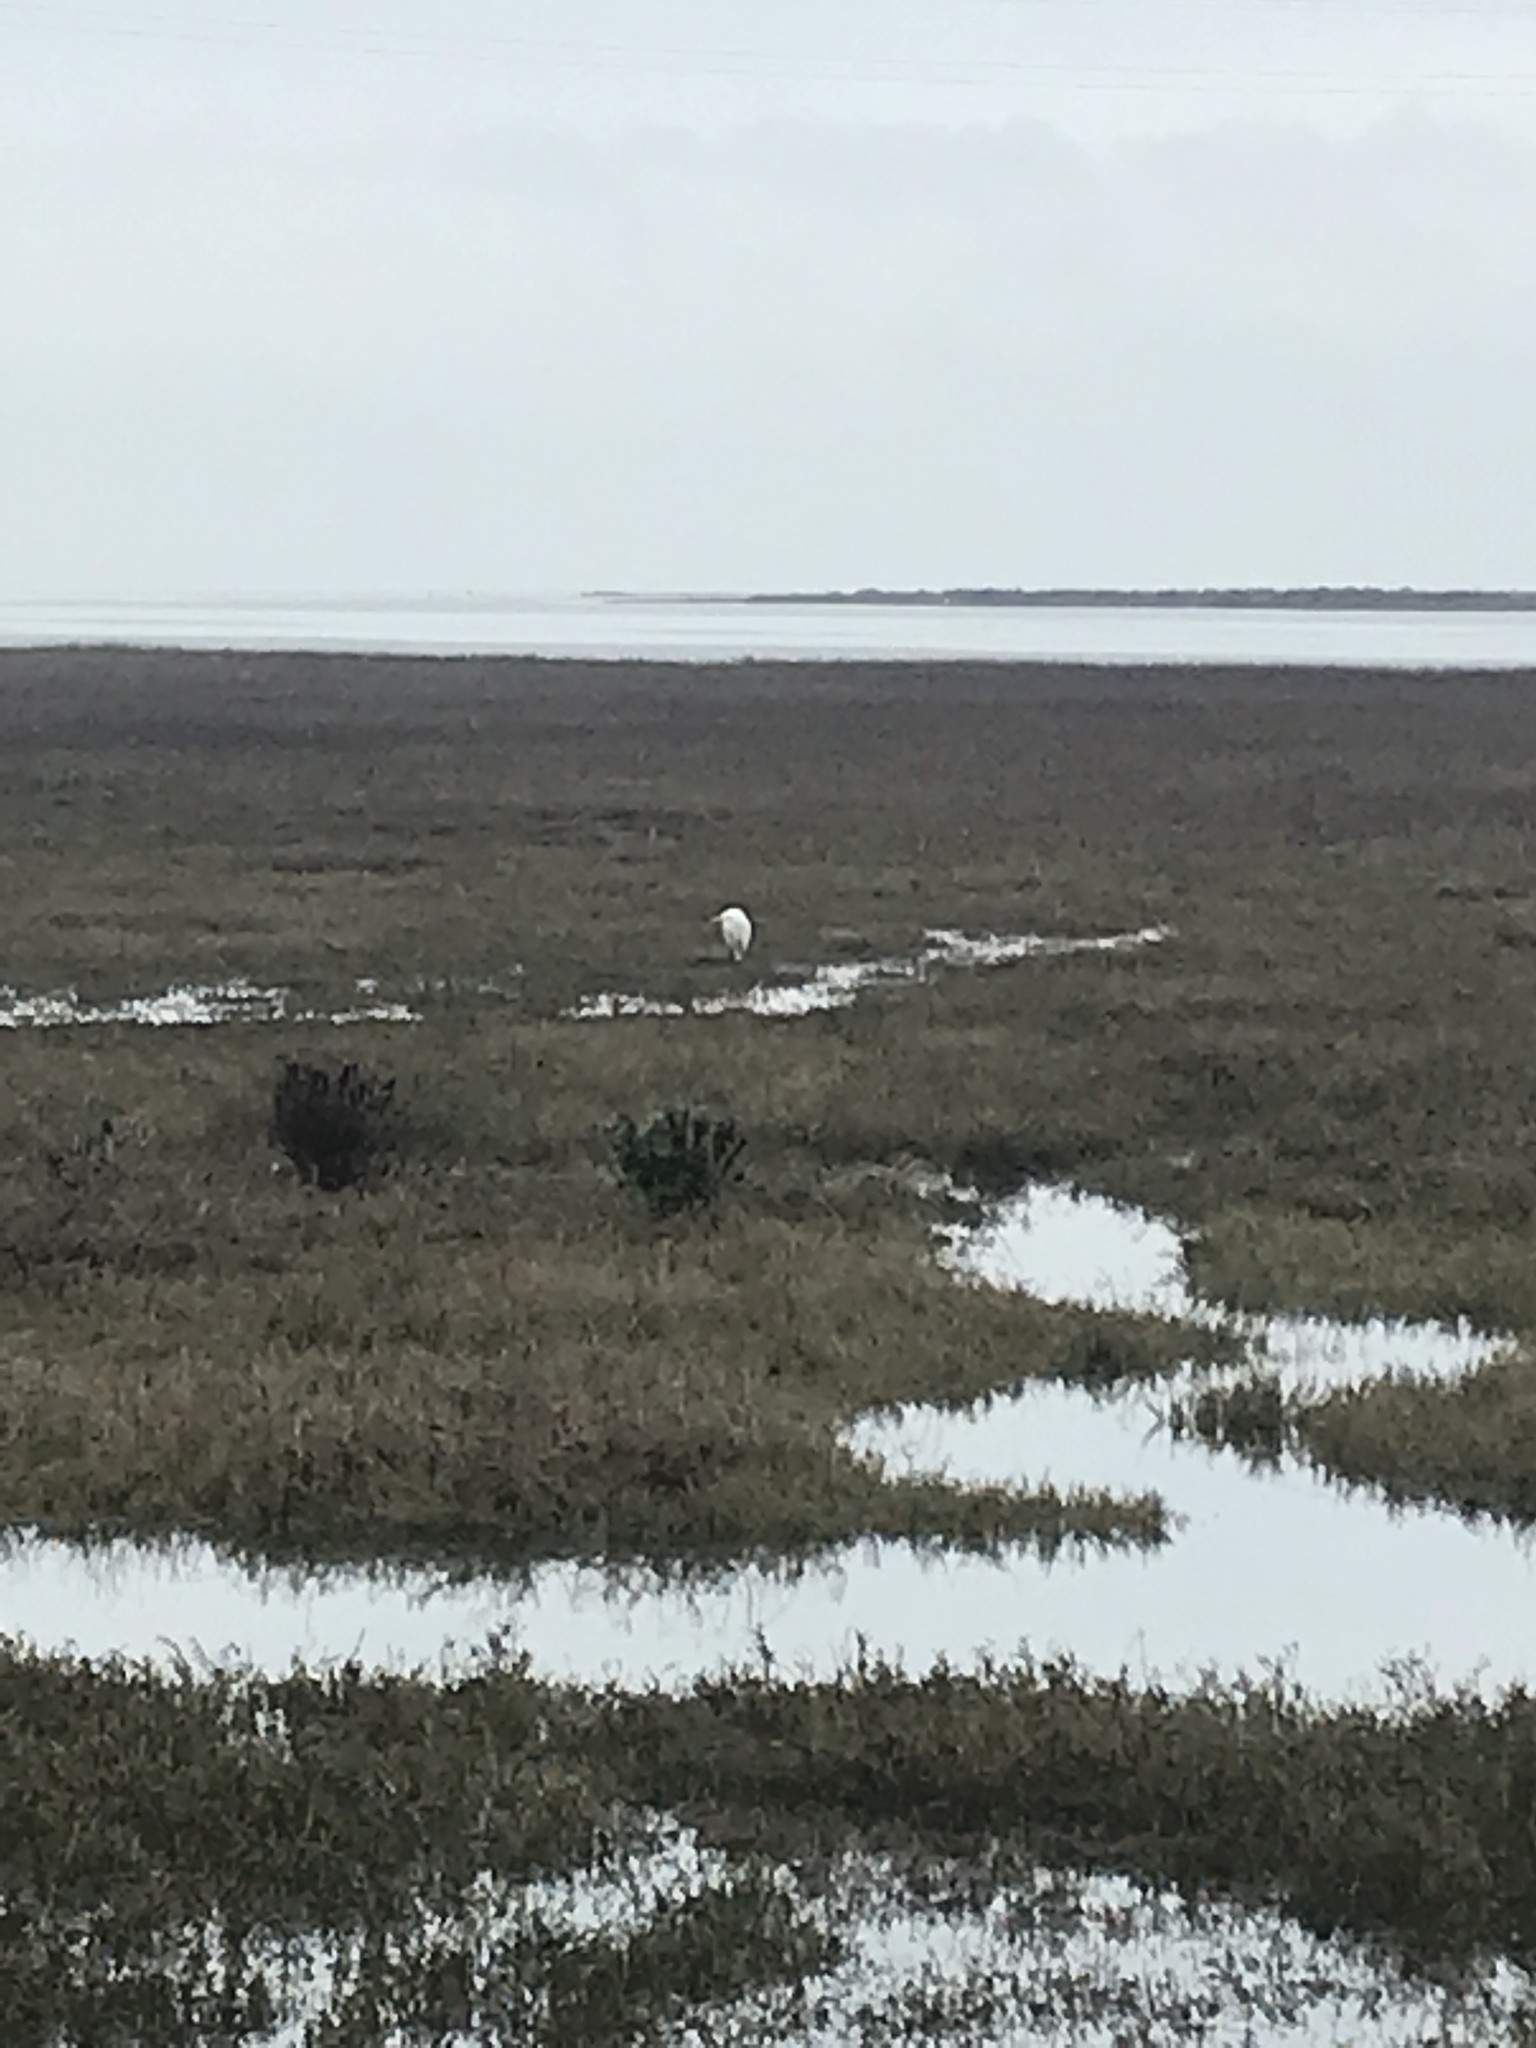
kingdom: Animalia
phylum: Chordata
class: Aves
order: Pelecaniformes
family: Ardeidae
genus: Ardea
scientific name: Ardea alba
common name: Great egret
